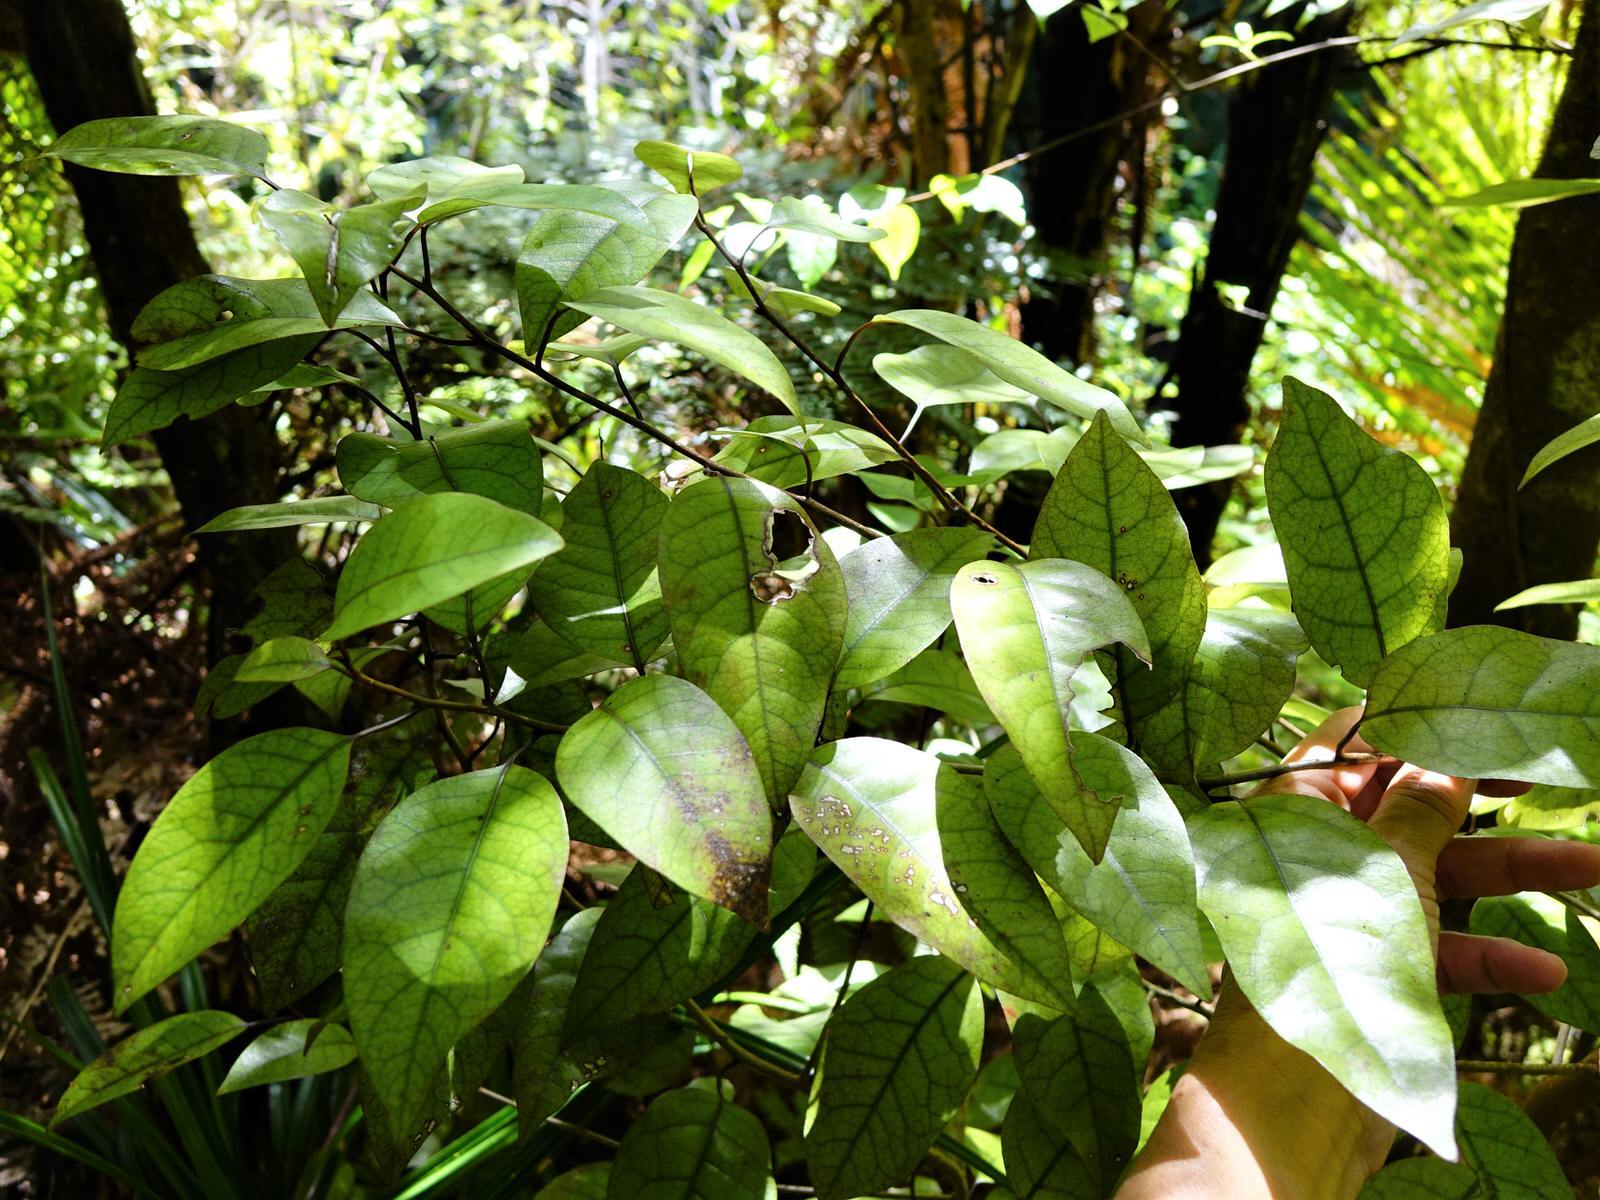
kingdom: Plantae
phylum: Tracheophyta
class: Magnoliopsida
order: Laurales
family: Lauraceae
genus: Litsea
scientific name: Litsea calicaris
